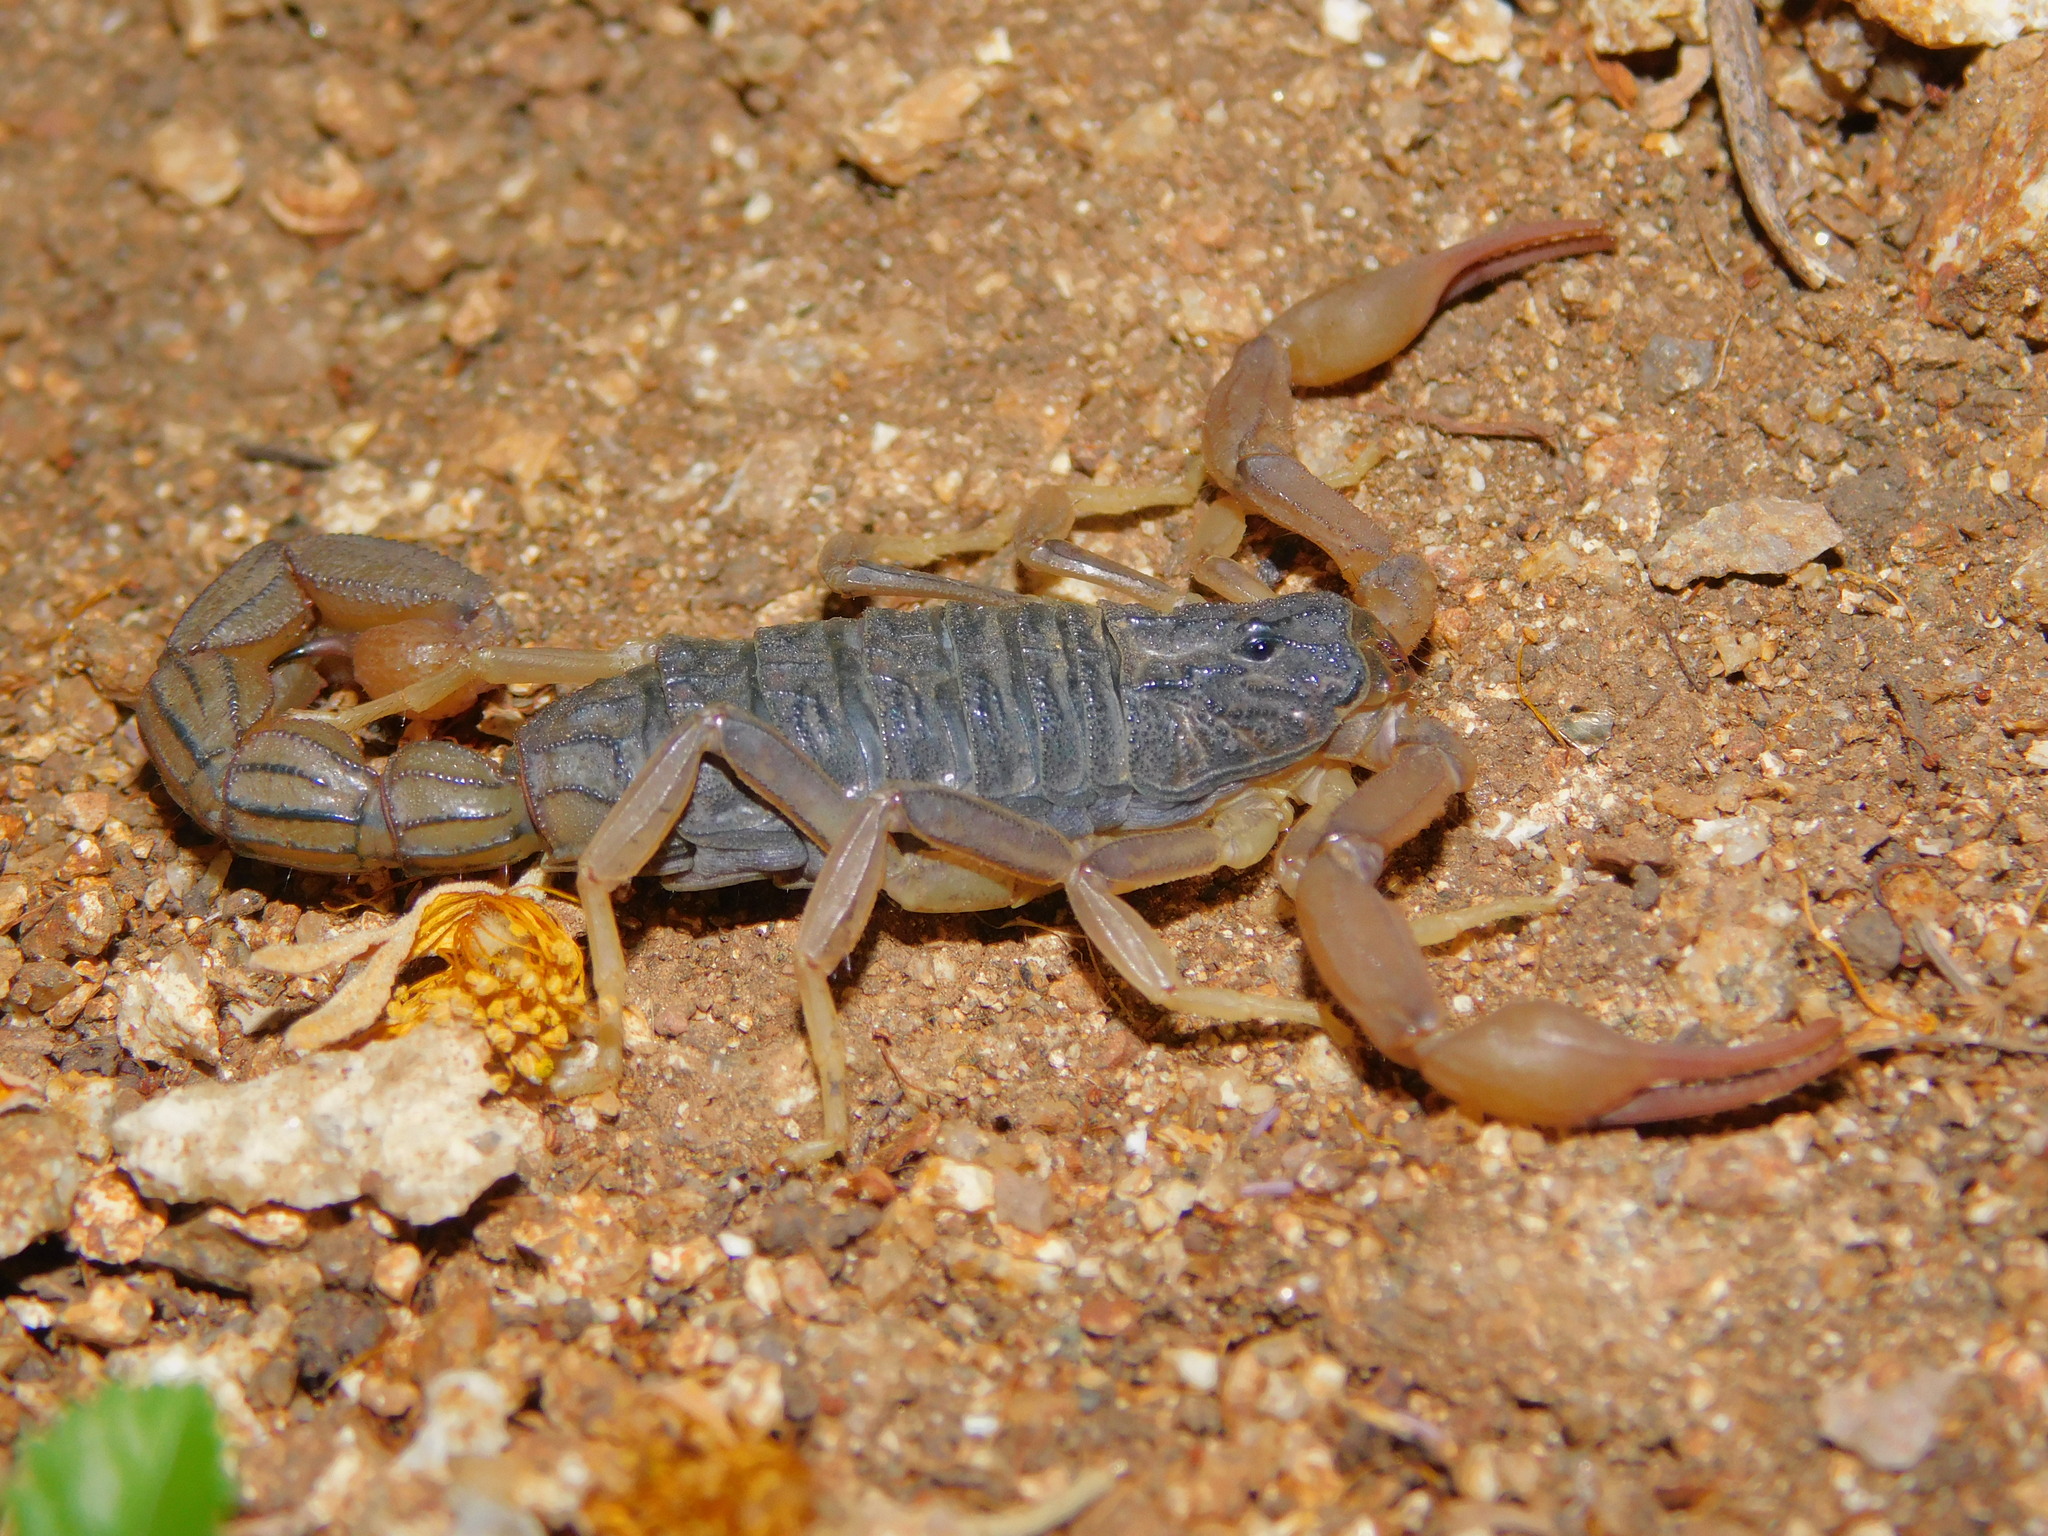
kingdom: Animalia
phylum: Arthropoda
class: Arachnida
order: Scorpiones
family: Buthidae
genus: Hottentotta
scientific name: Hottentotta ugandaensis
